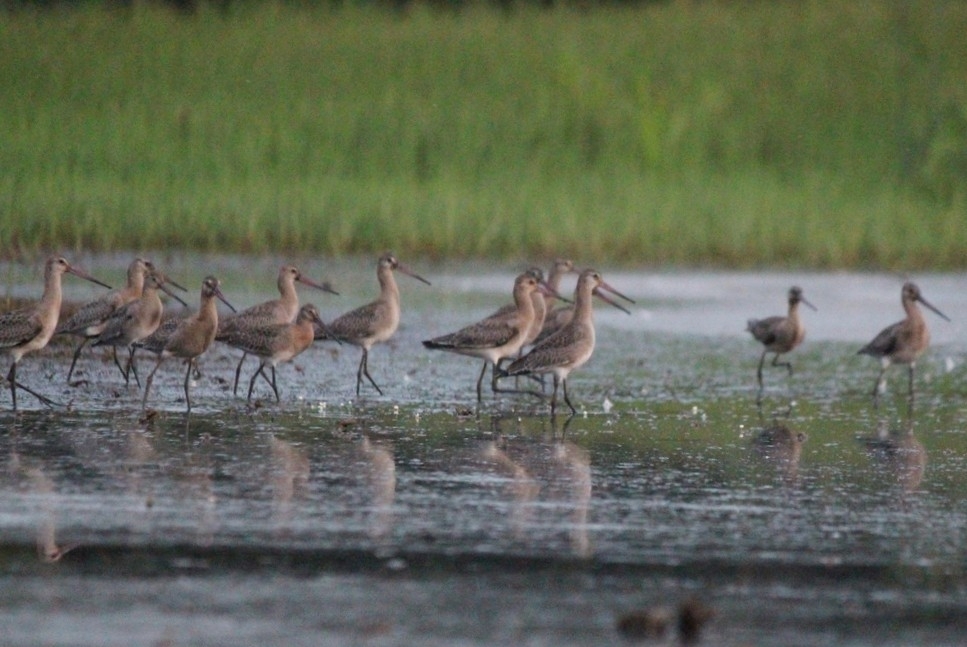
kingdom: Animalia
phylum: Chordata
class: Aves
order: Charadriiformes
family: Scolopacidae
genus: Limosa
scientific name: Limosa limosa
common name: Black-tailed godwit
